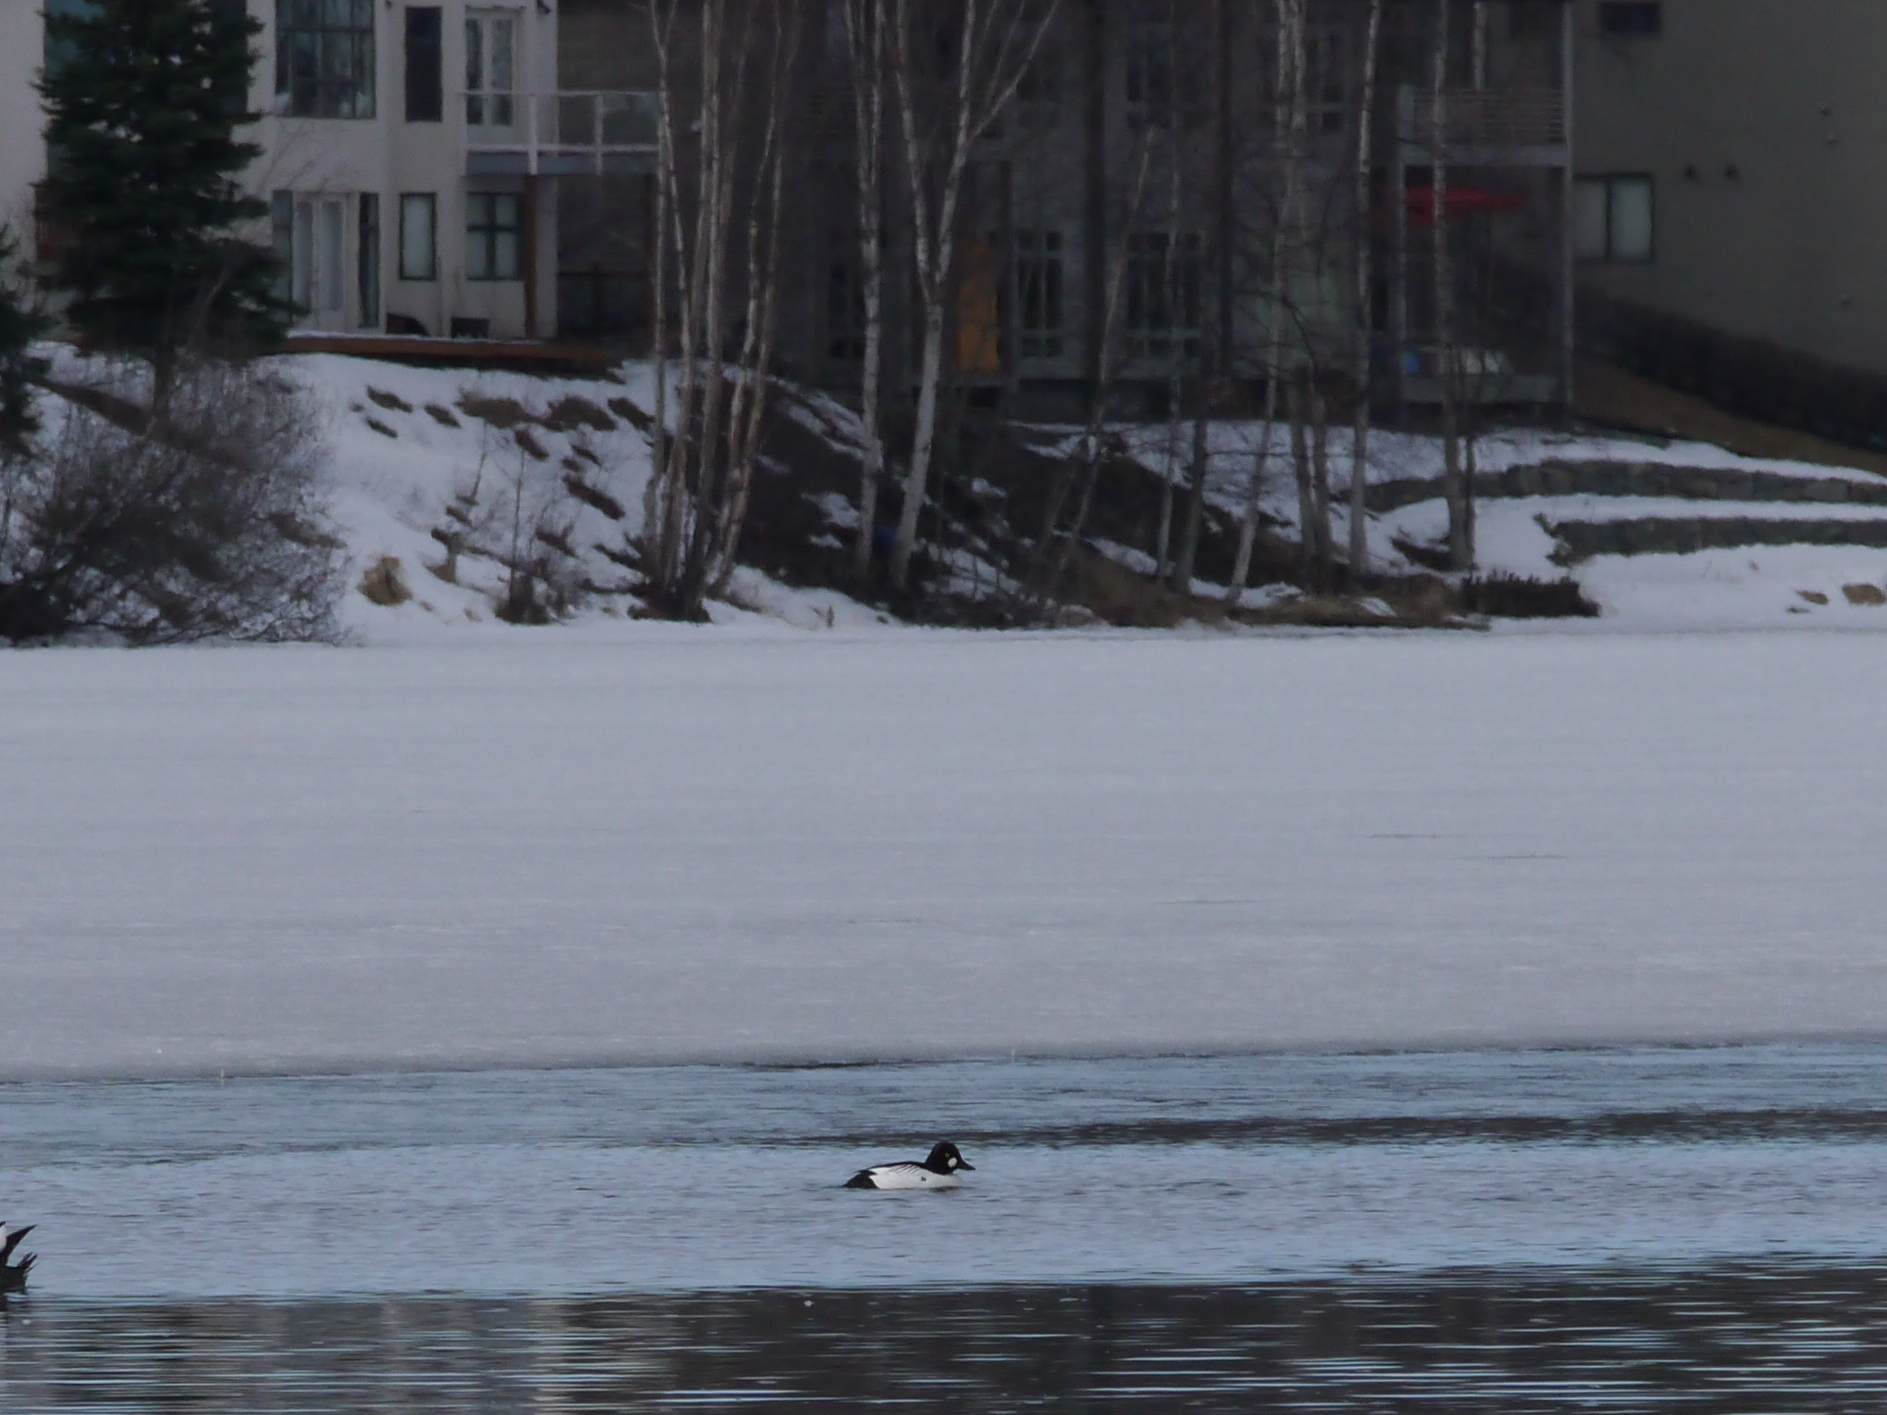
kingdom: Animalia
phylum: Chordata
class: Aves
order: Anseriformes
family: Anatidae
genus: Bucephala
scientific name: Bucephala clangula
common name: Common goldeneye
